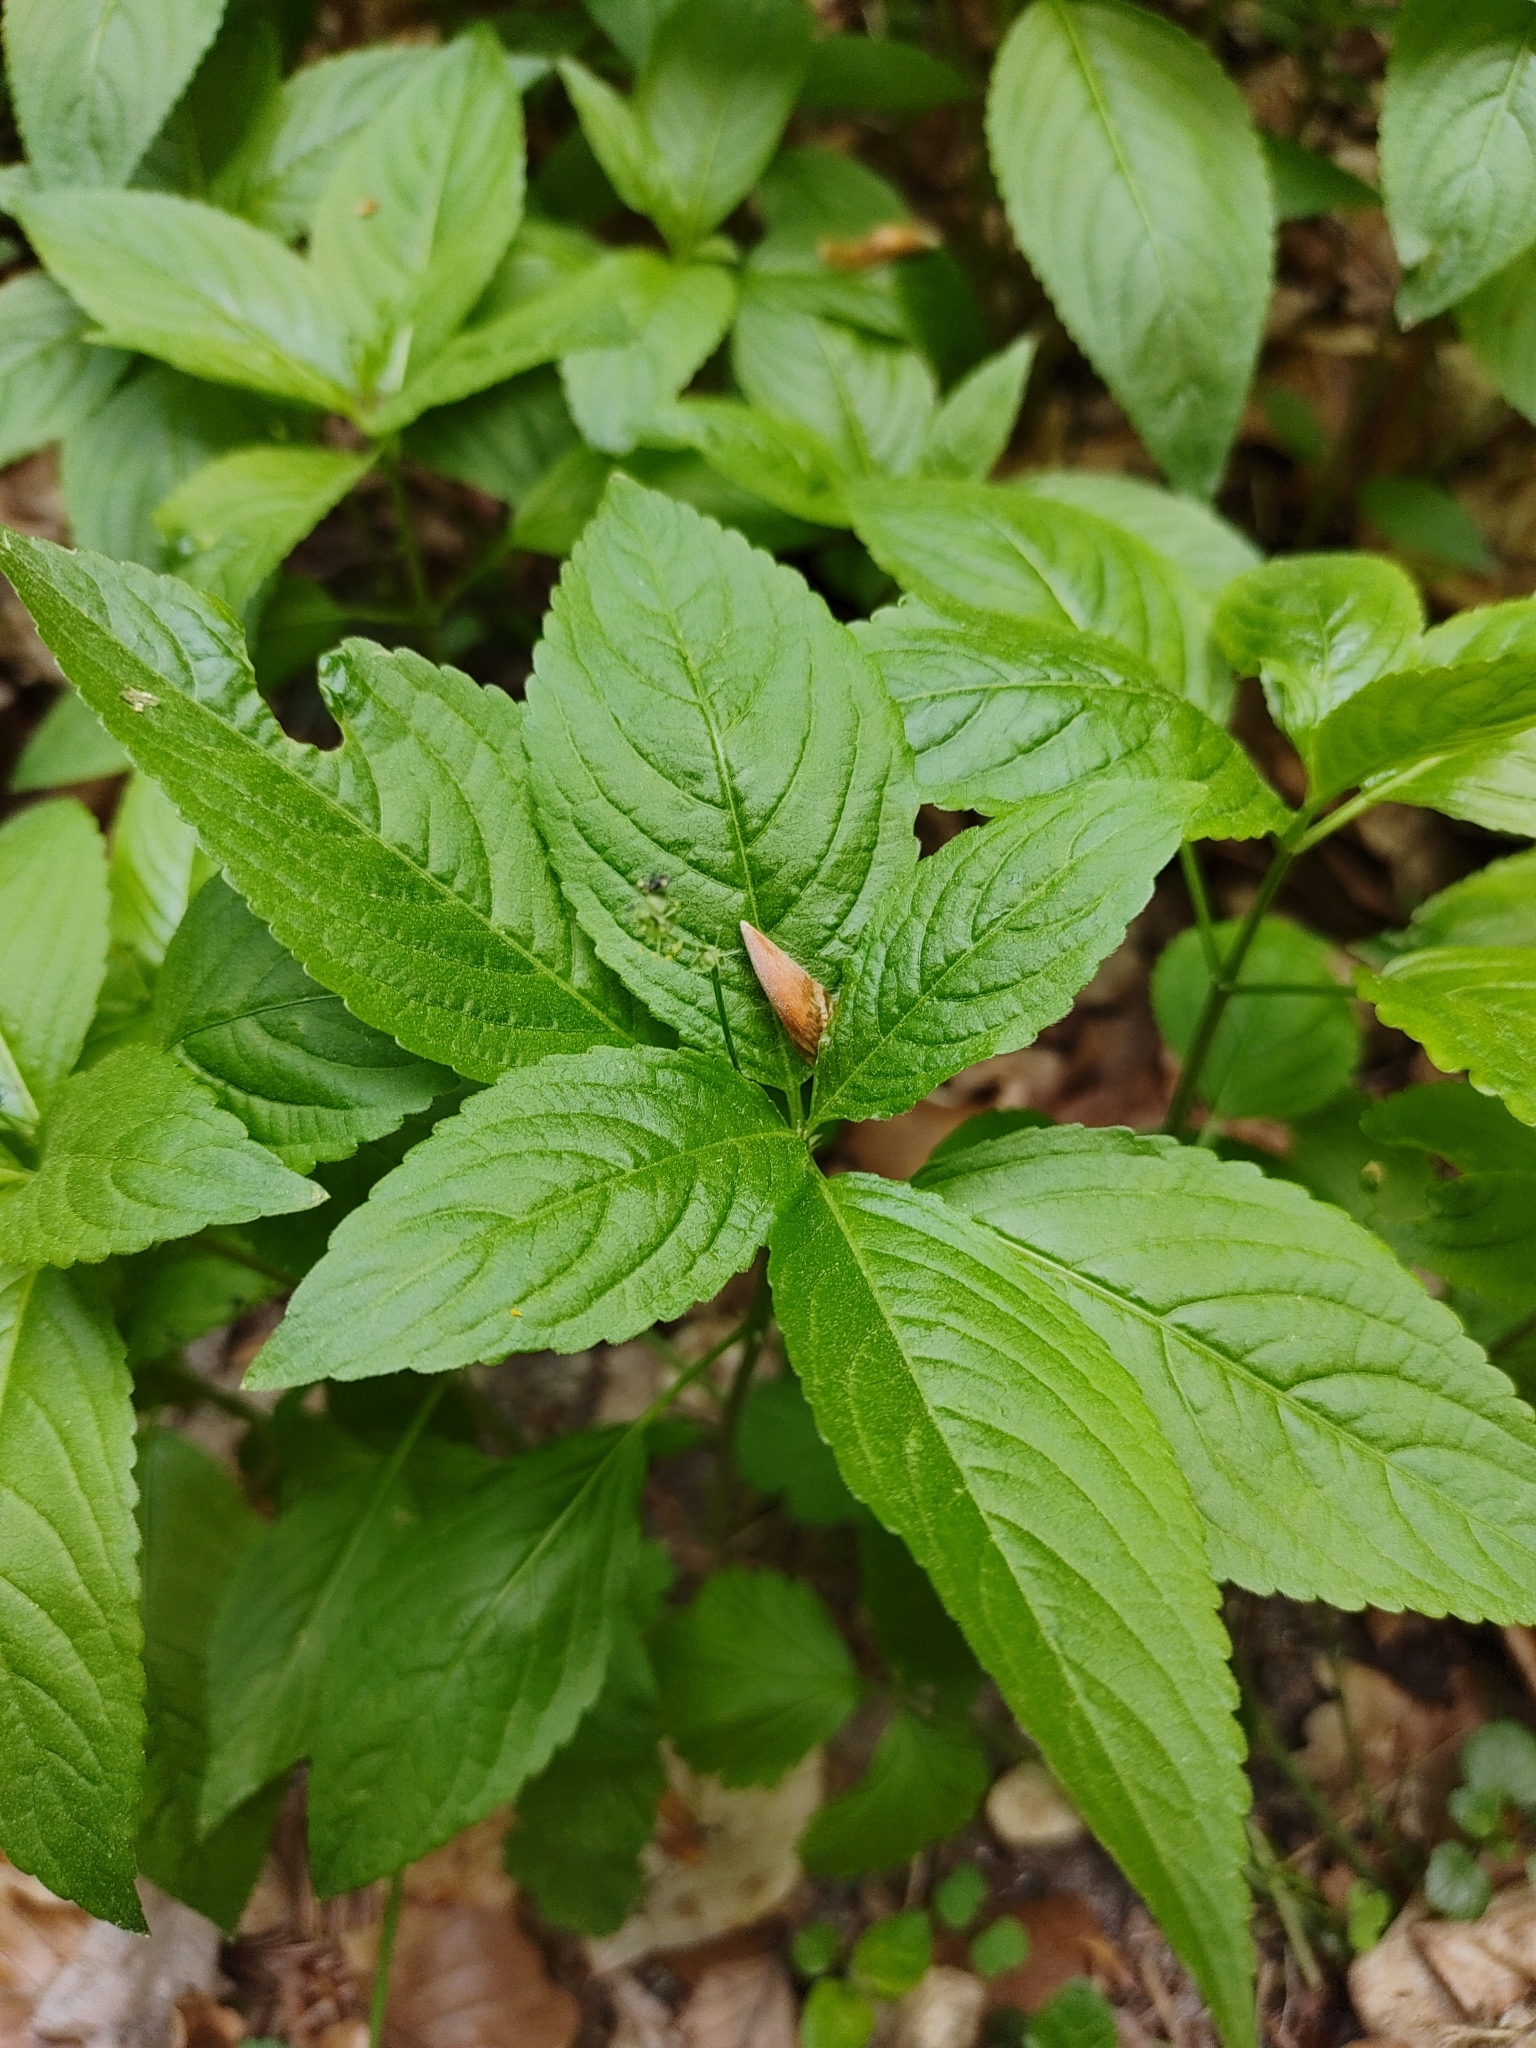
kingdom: Plantae
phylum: Tracheophyta
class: Magnoliopsida
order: Malpighiales
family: Euphorbiaceae
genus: Mercurialis
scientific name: Mercurialis perennis
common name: Dog mercury
